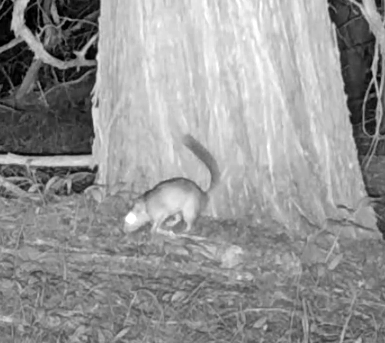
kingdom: Animalia
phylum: Chordata
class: Mammalia
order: Rodentia
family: Cricetidae
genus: Neotoma
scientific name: Neotoma cinerea
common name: Bushy-tailed woodrat
